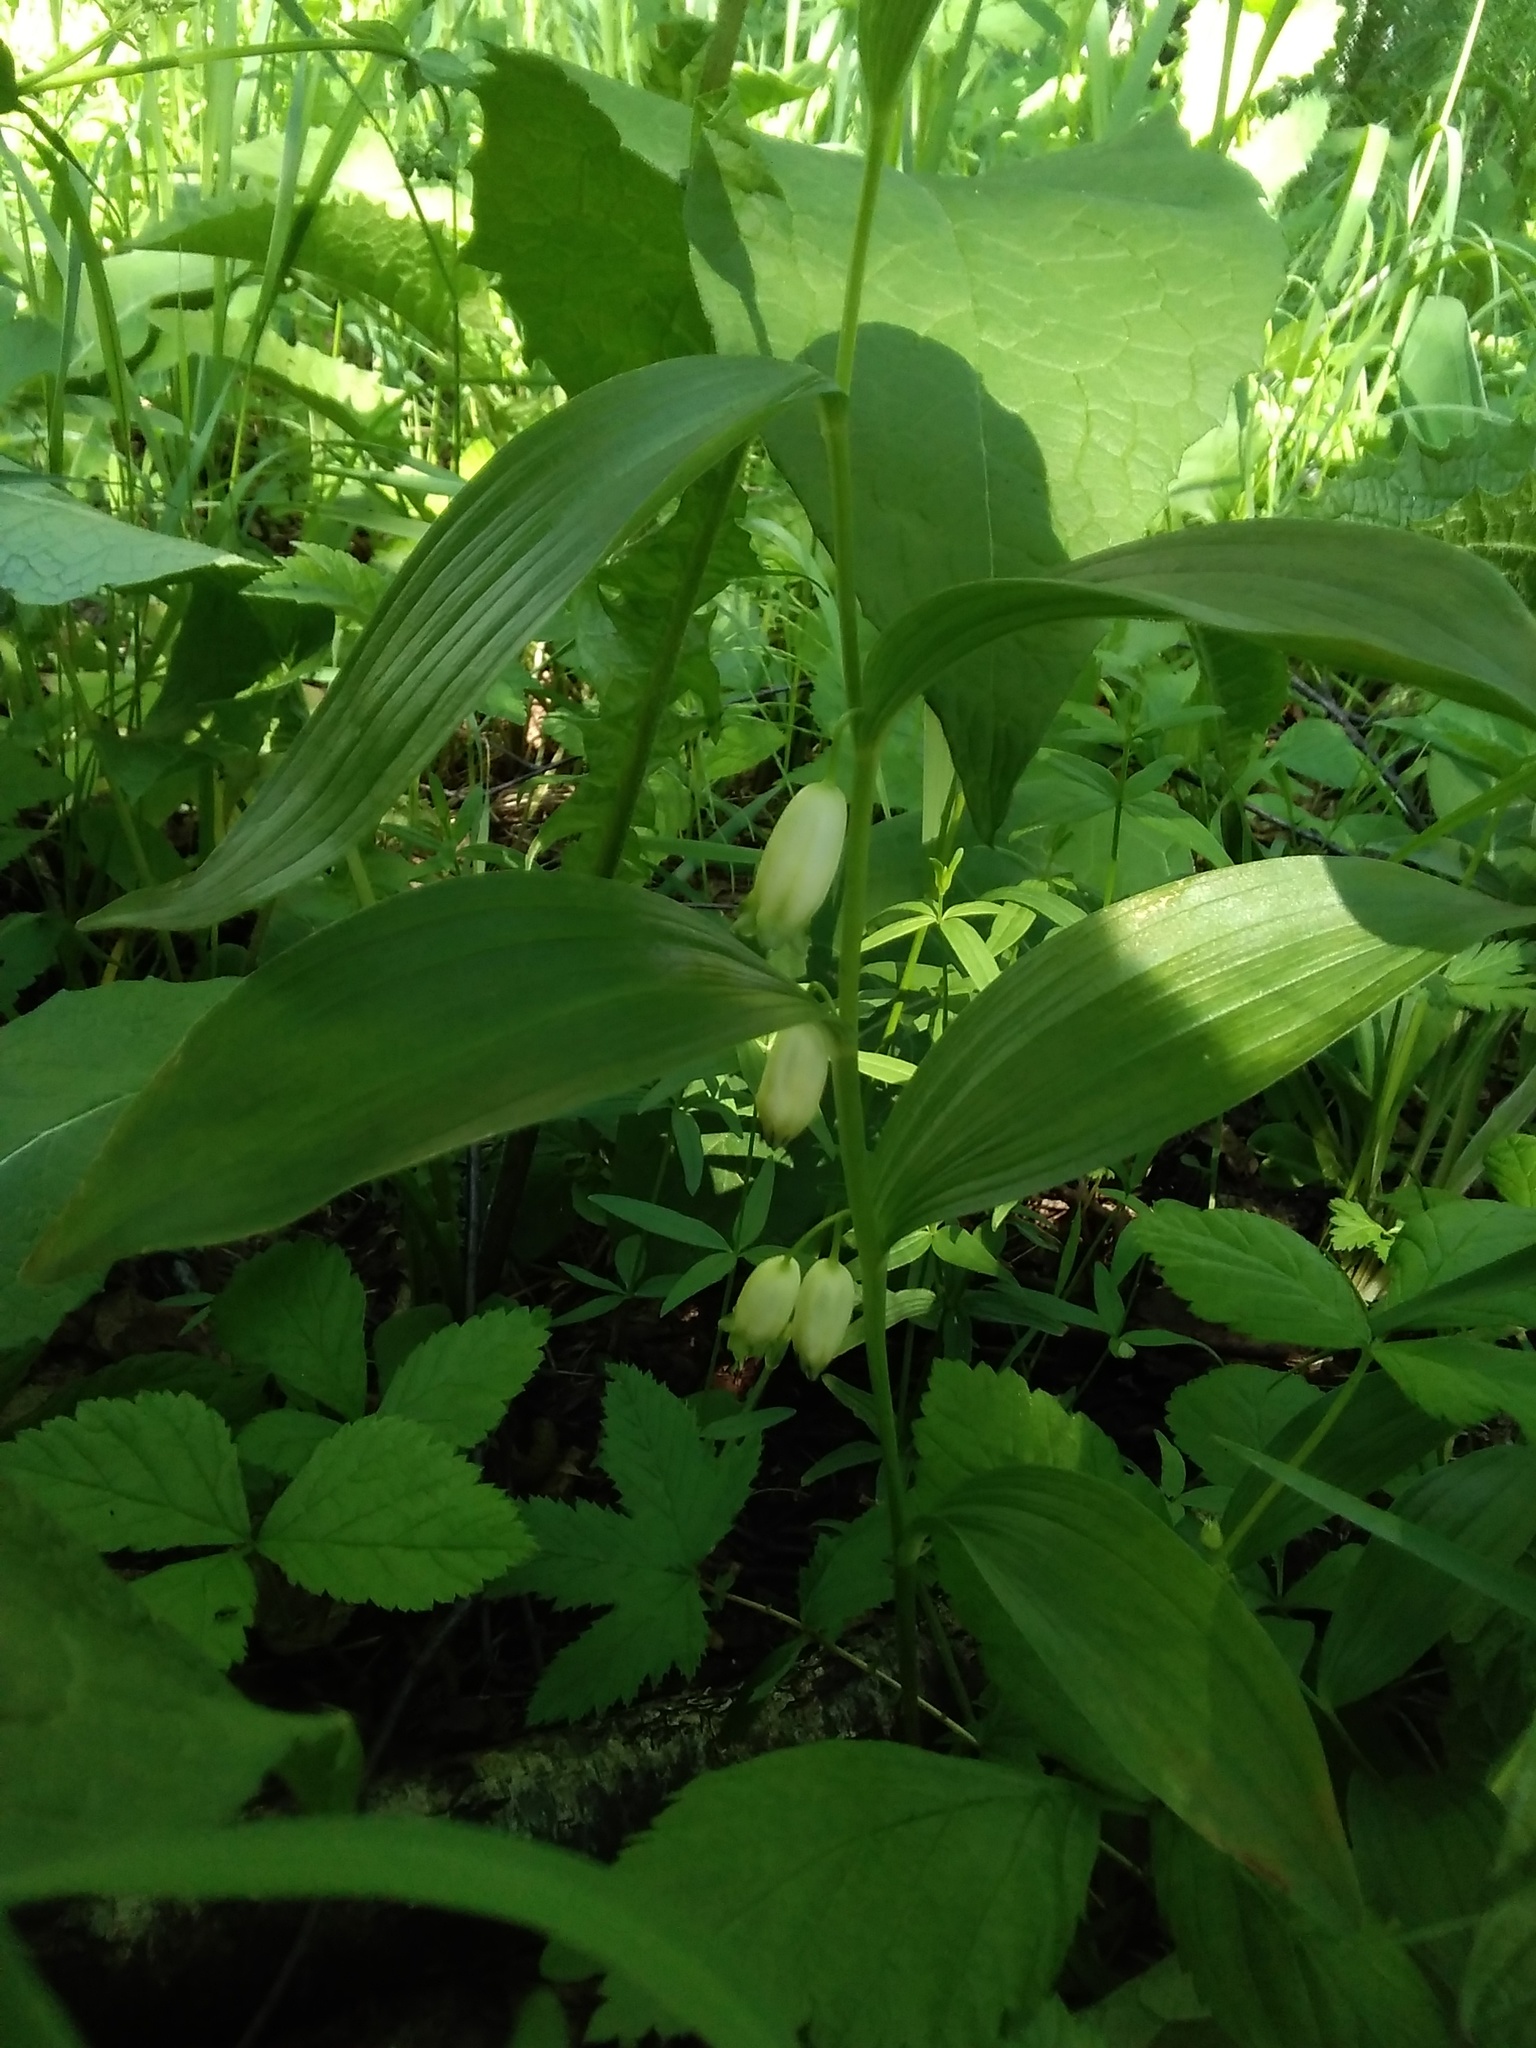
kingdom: Plantae
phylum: Tracheophyta
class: Liliopsida
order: Asparagales
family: Asparagaceae
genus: Polygonatum
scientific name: Polygonatum humile
